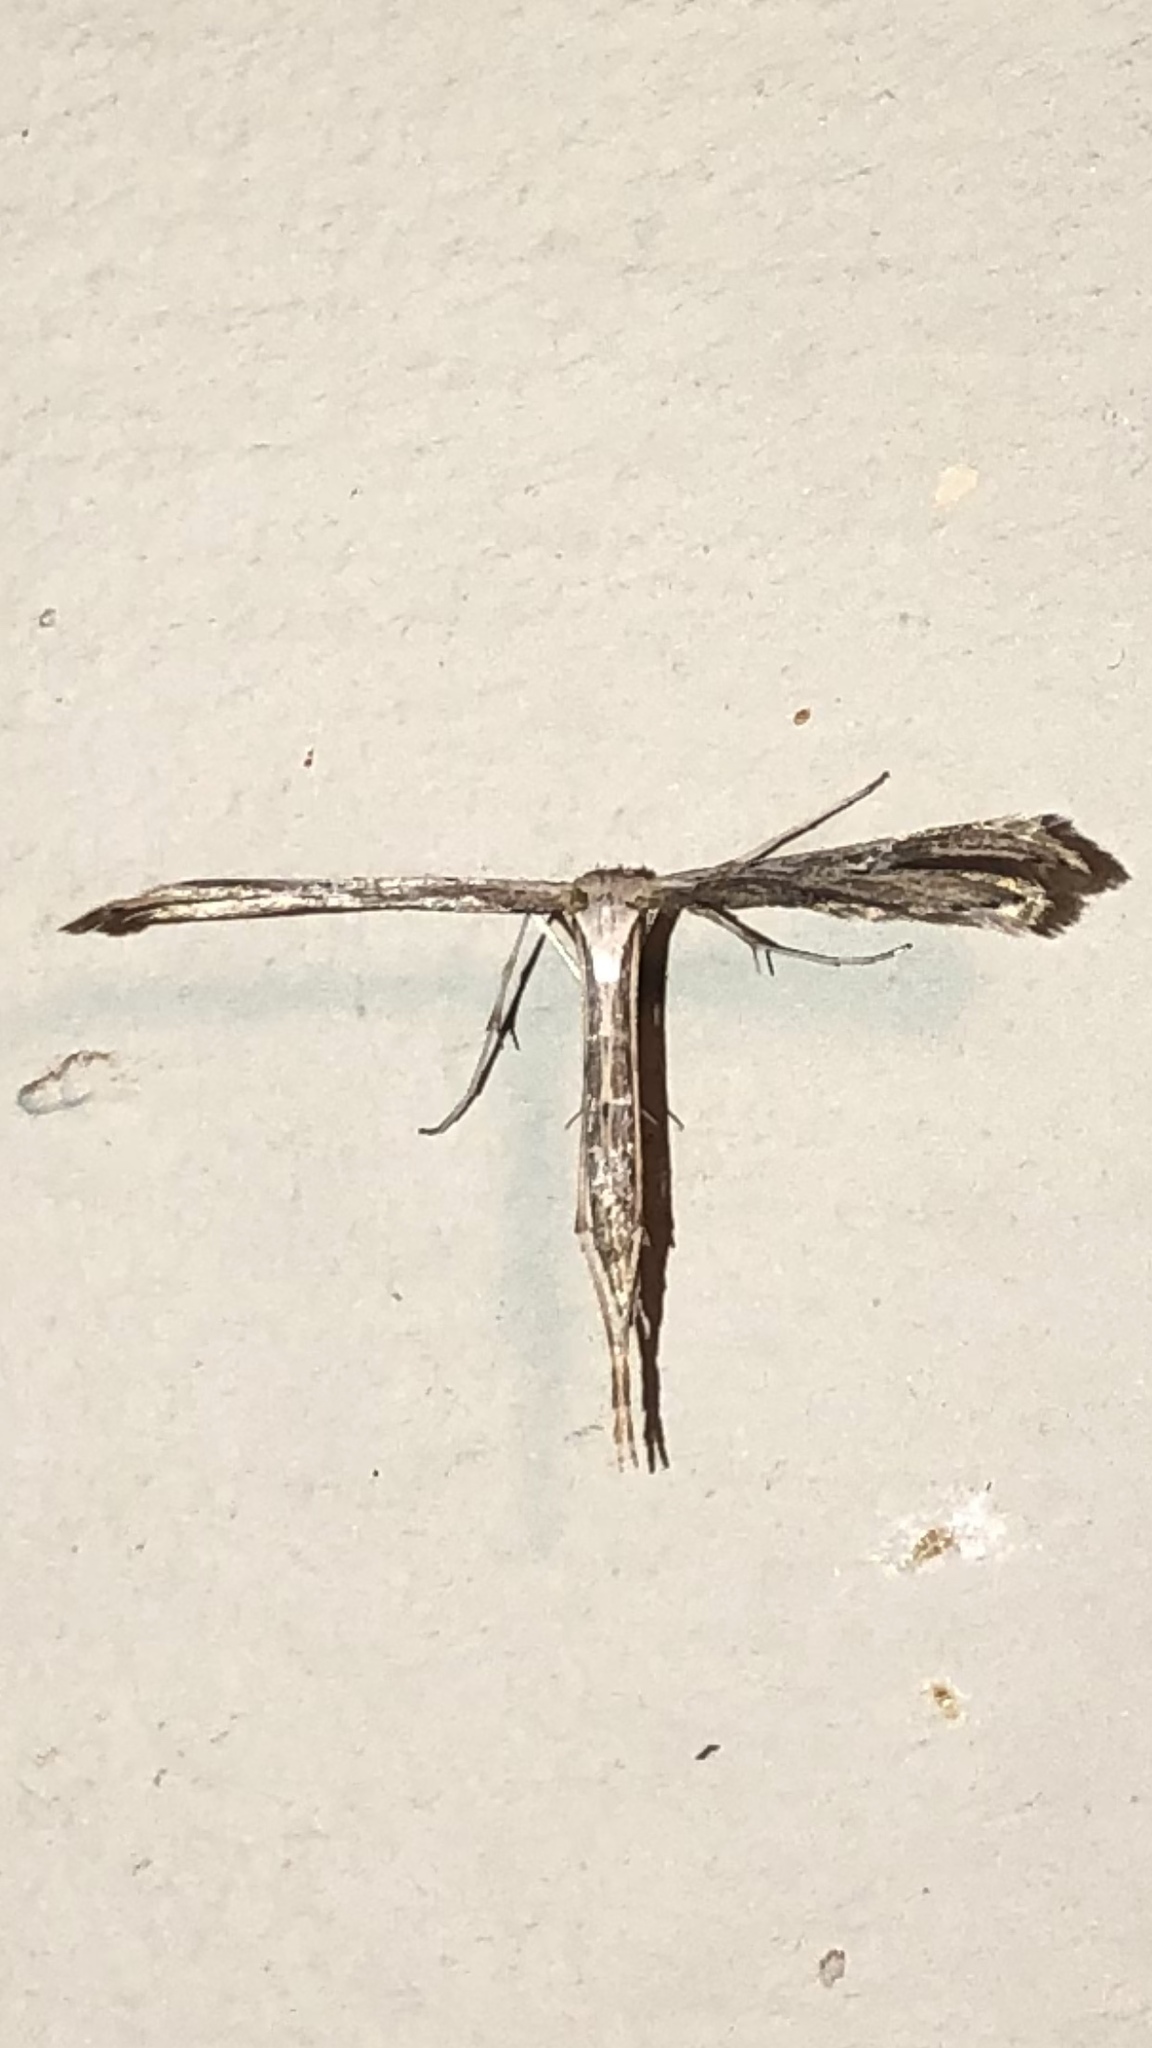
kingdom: Animalia
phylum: Arthropoda
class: Insecta
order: Lepidoptera
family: Pterophoridae
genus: Emmelina
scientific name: Emmelina monodactyla
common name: Common plume
